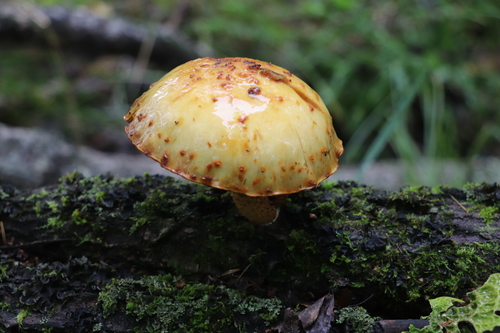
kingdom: Fungi
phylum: Basidiomycota
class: Agaricomycetes
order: Agaricales
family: Strophariaceae
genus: Pholiota
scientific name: Pholiota
